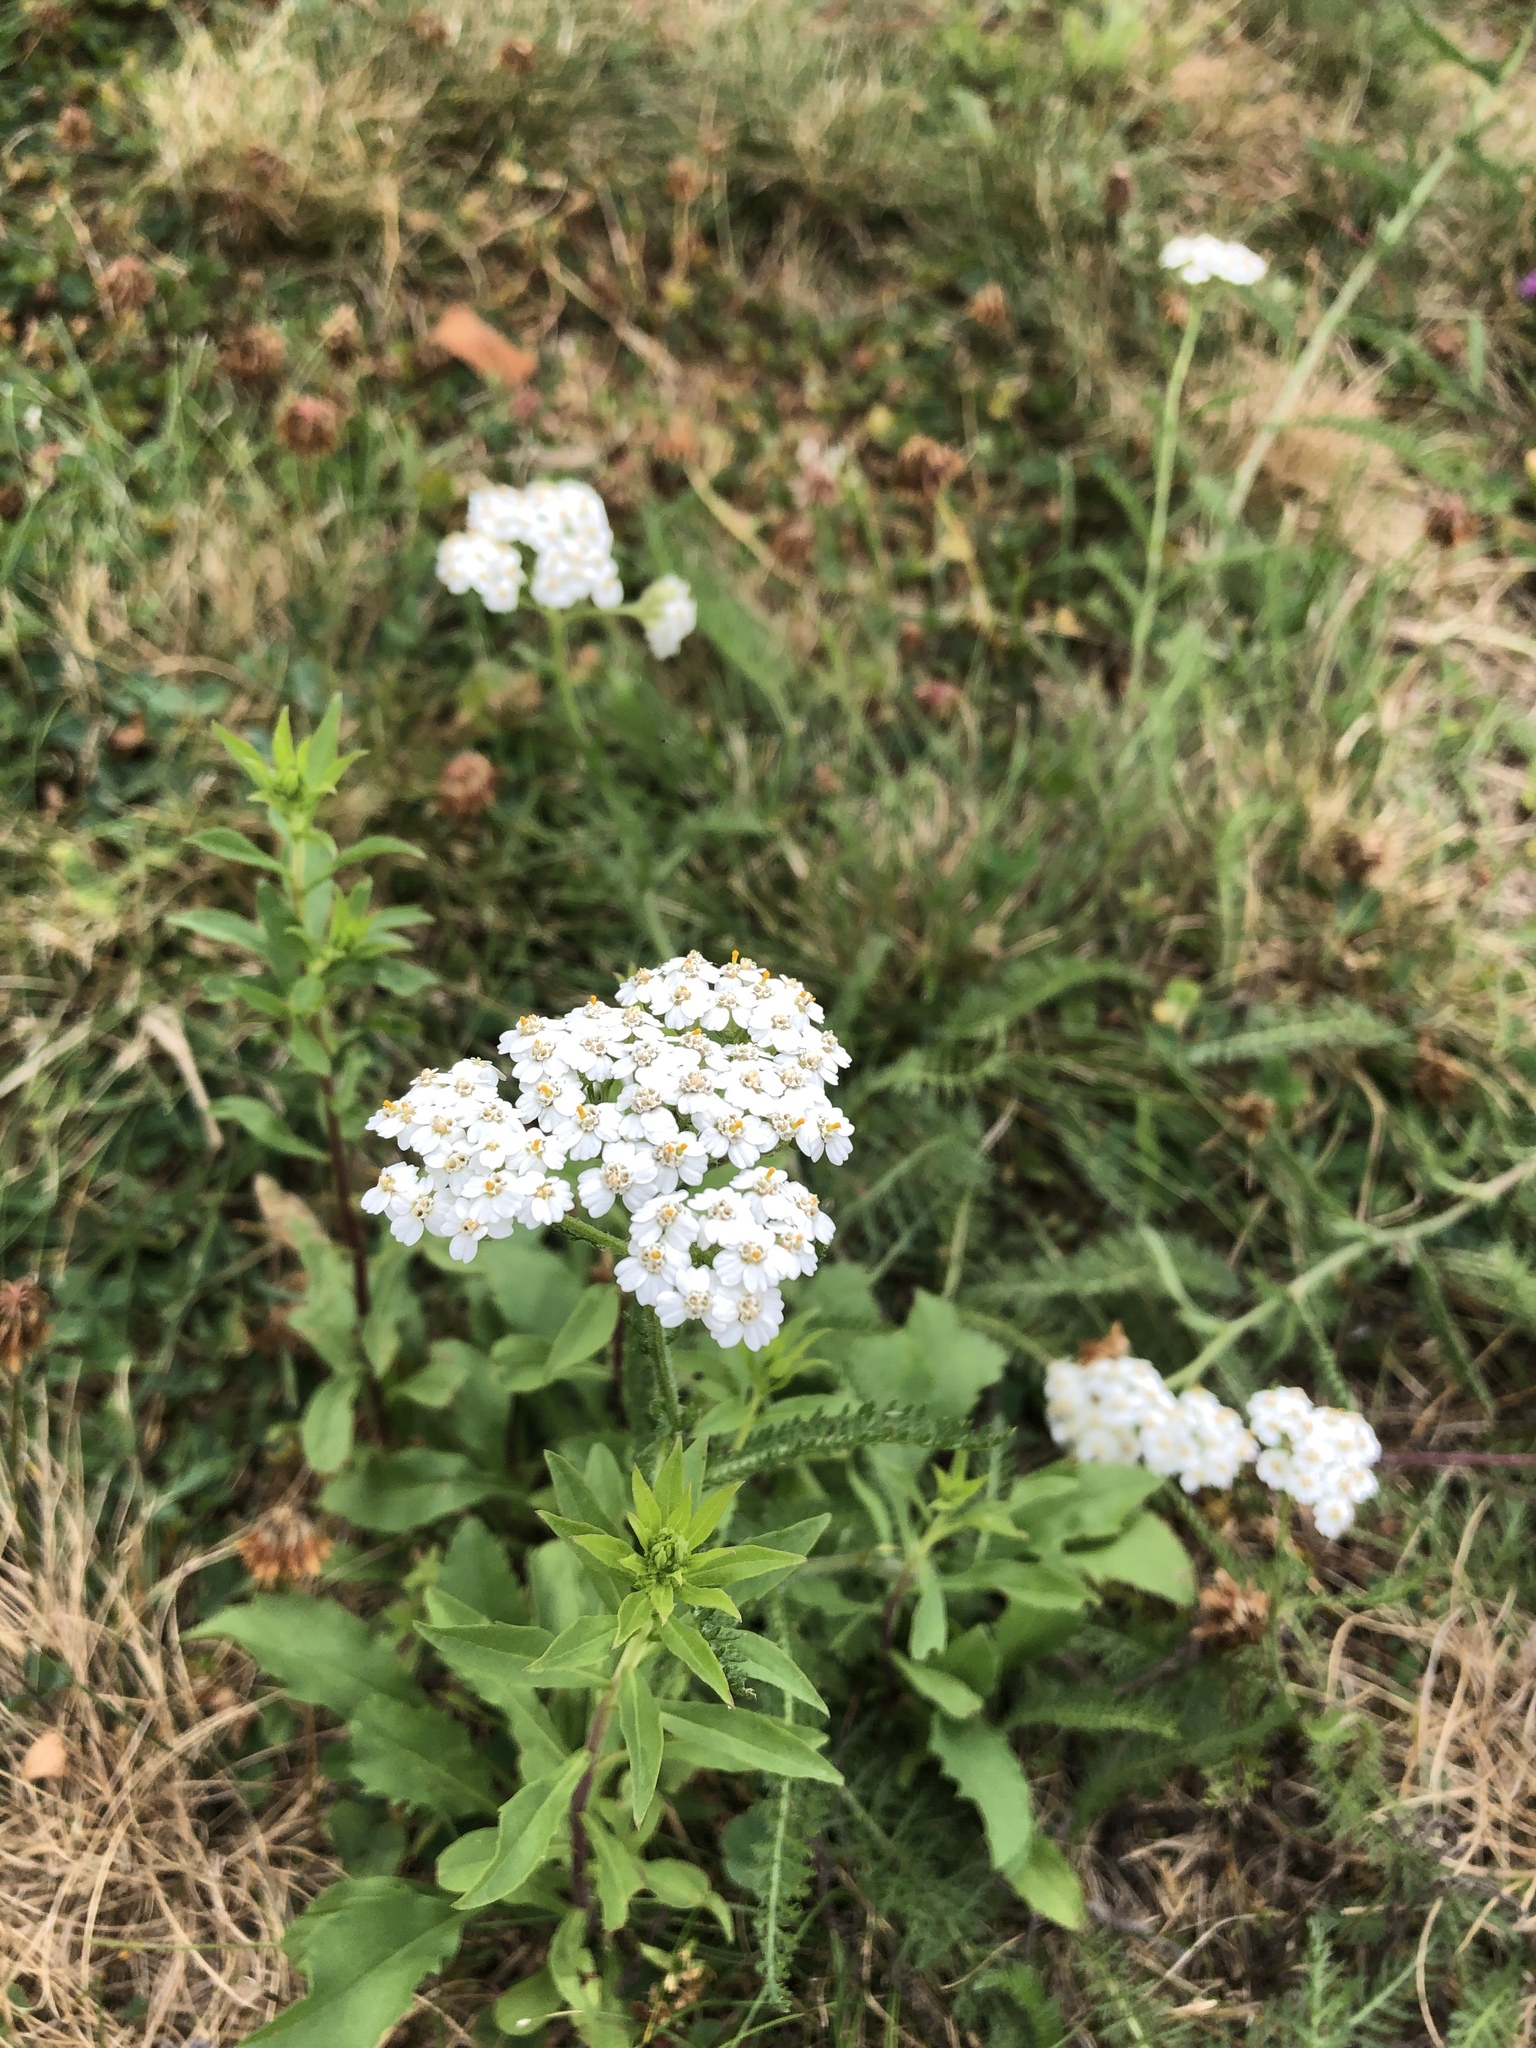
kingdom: Plantae
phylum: Tracheophyta
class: Magnoliopsida
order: Asterales
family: Asteraceae
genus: Achillea
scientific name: Achillea millefolium
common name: Yarrow
